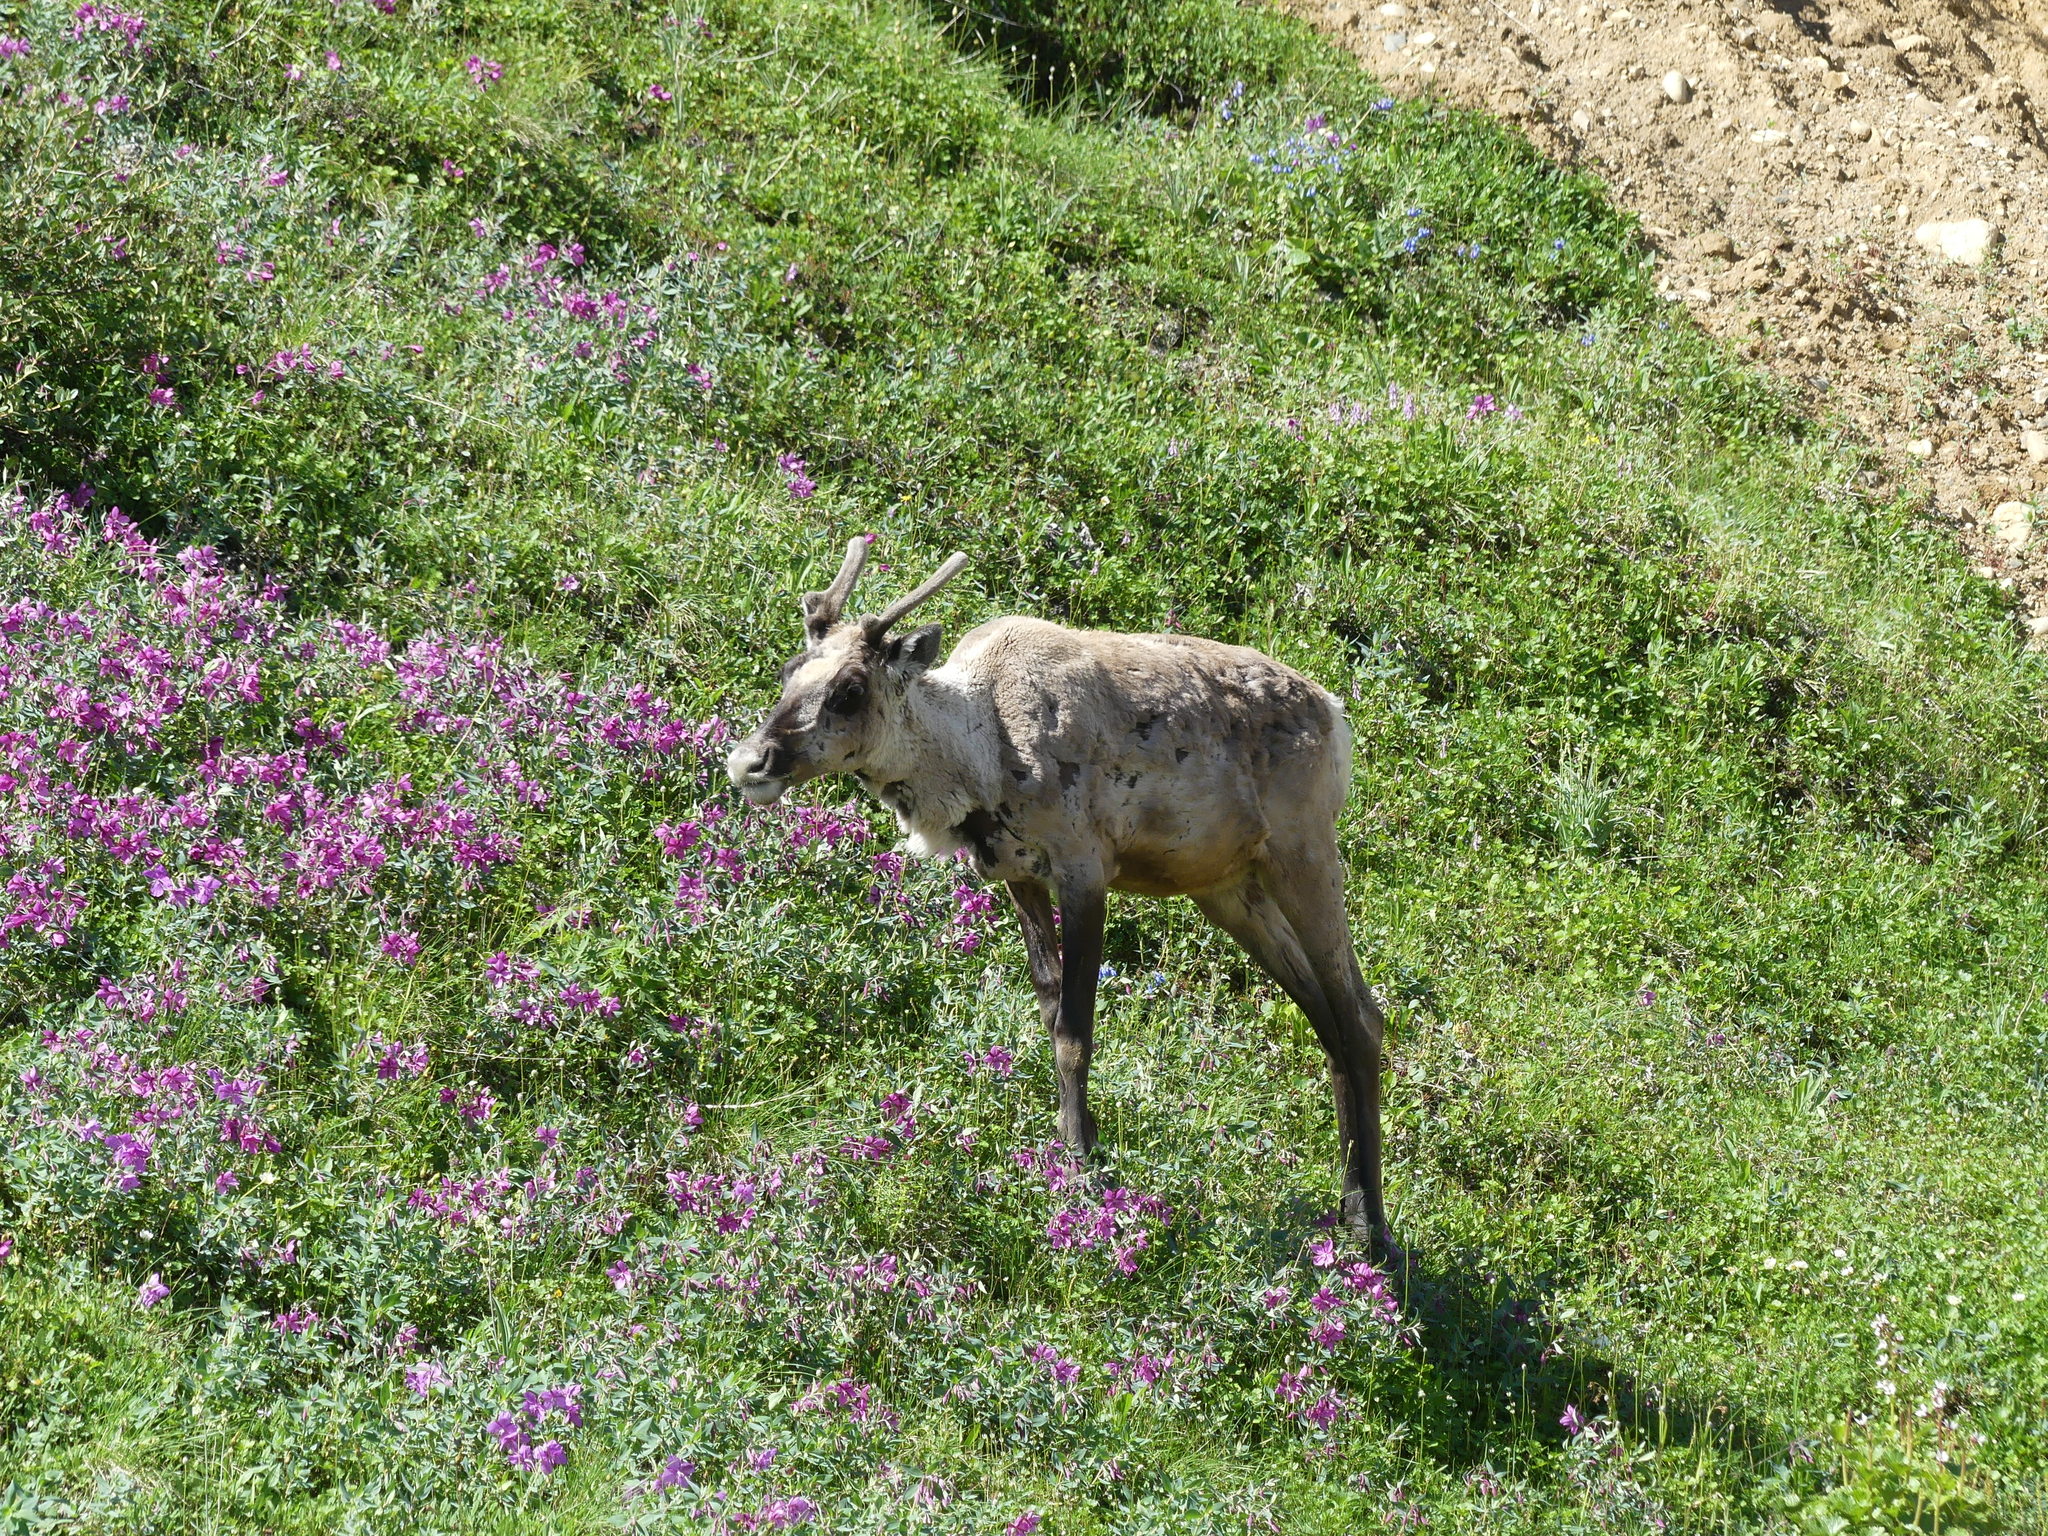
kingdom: Animalia
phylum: Chordata
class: Mammalia
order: Artiodactyla
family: Cervidae
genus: Rangifer
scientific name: Rangifer tarandus
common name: Reindeer
